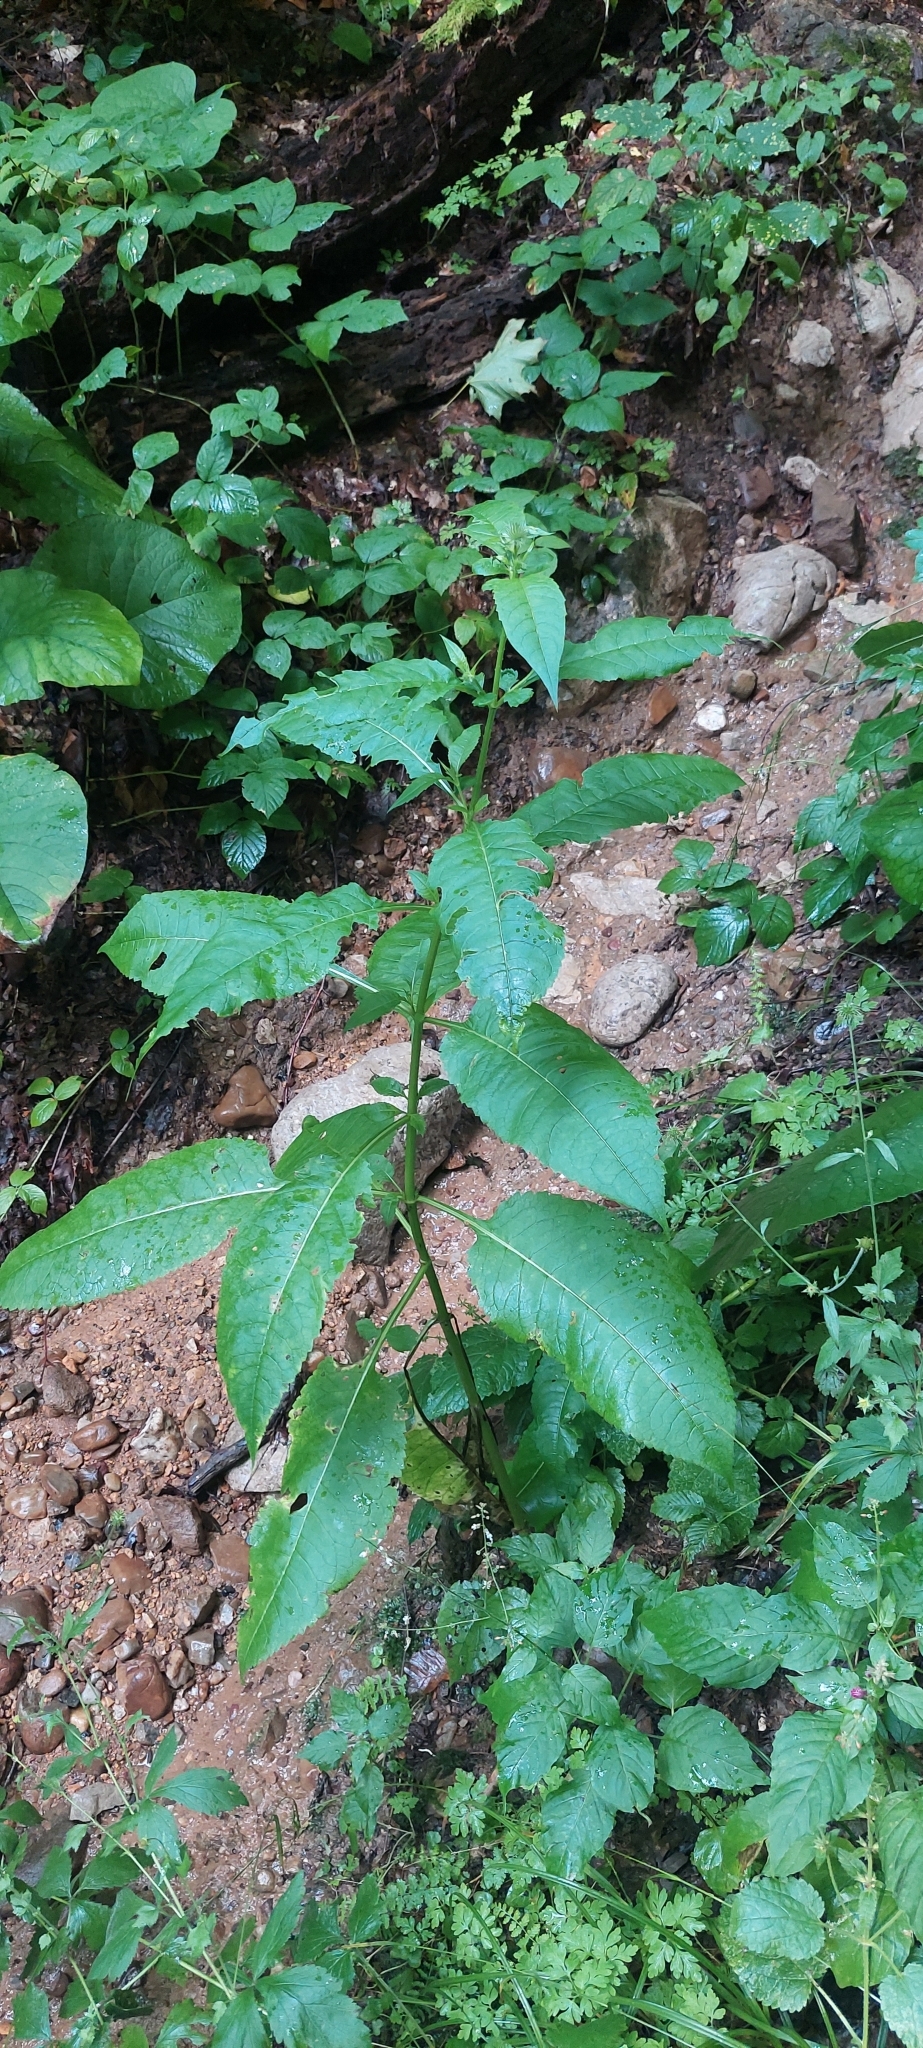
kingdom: Plantae
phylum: Tracheophyta
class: Magnoliopsida
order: Dipsacales
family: Caprifoliaceae
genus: Dipsacus
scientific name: Dipsacus pilosus
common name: Small teasel
